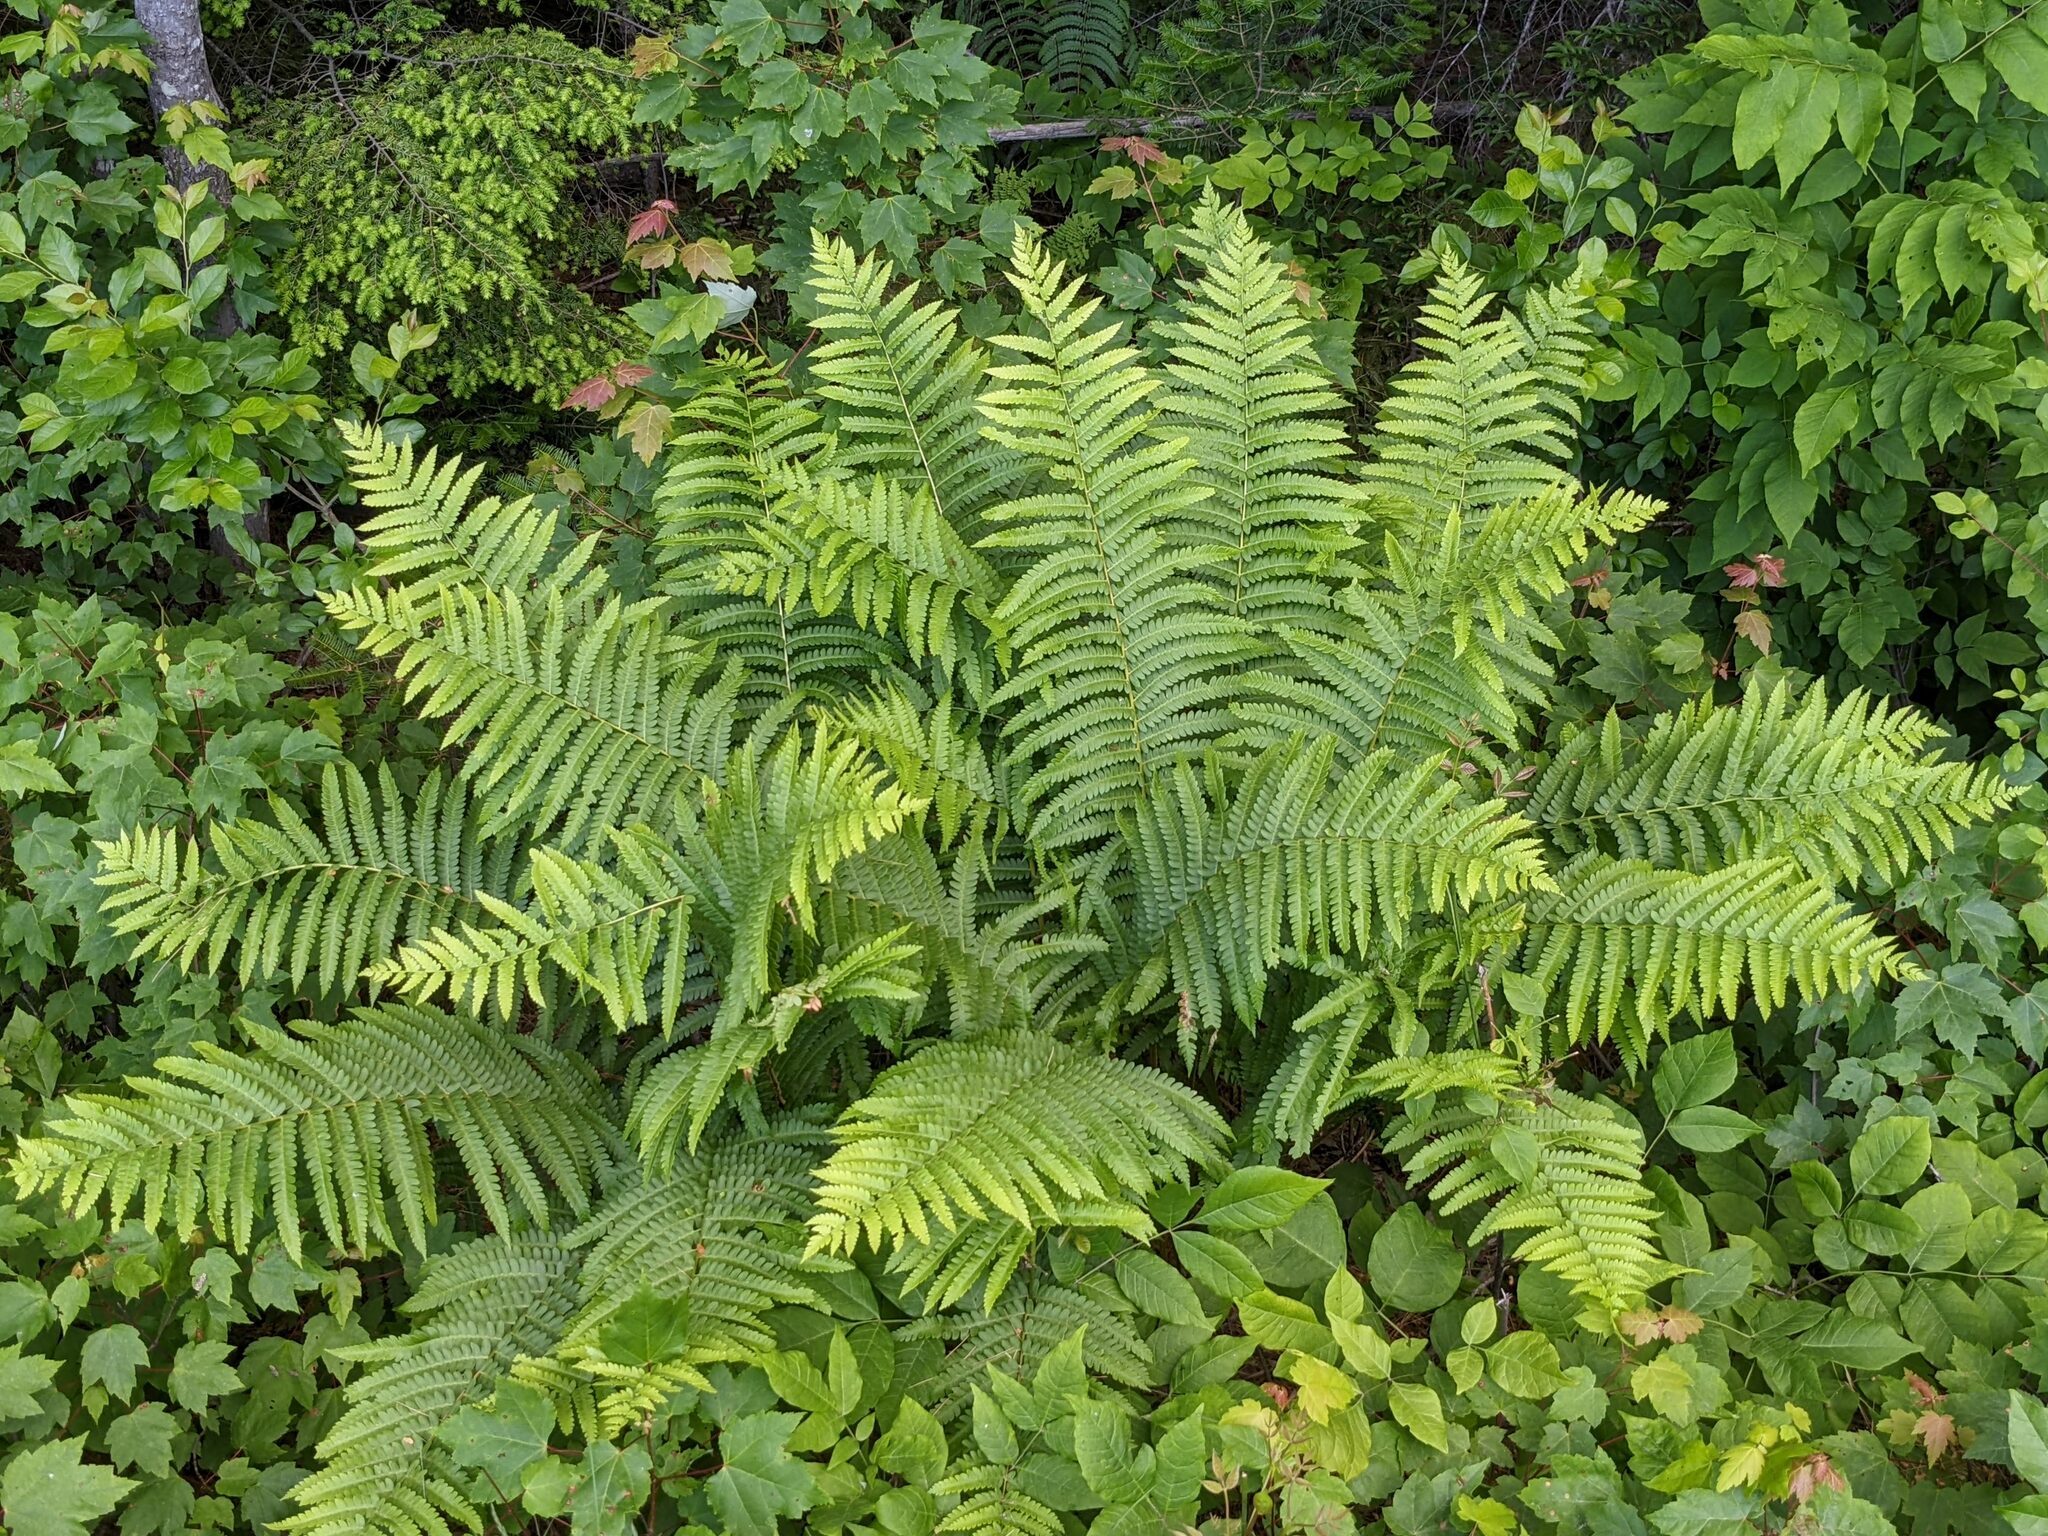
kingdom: Plantae
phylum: Tracheophyta
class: Polypodiopsida
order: Osmundales
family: Osmundaceae
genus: Osmundastrum
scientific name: Osmundastrum cinnamomeum
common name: Cinnamon fern
